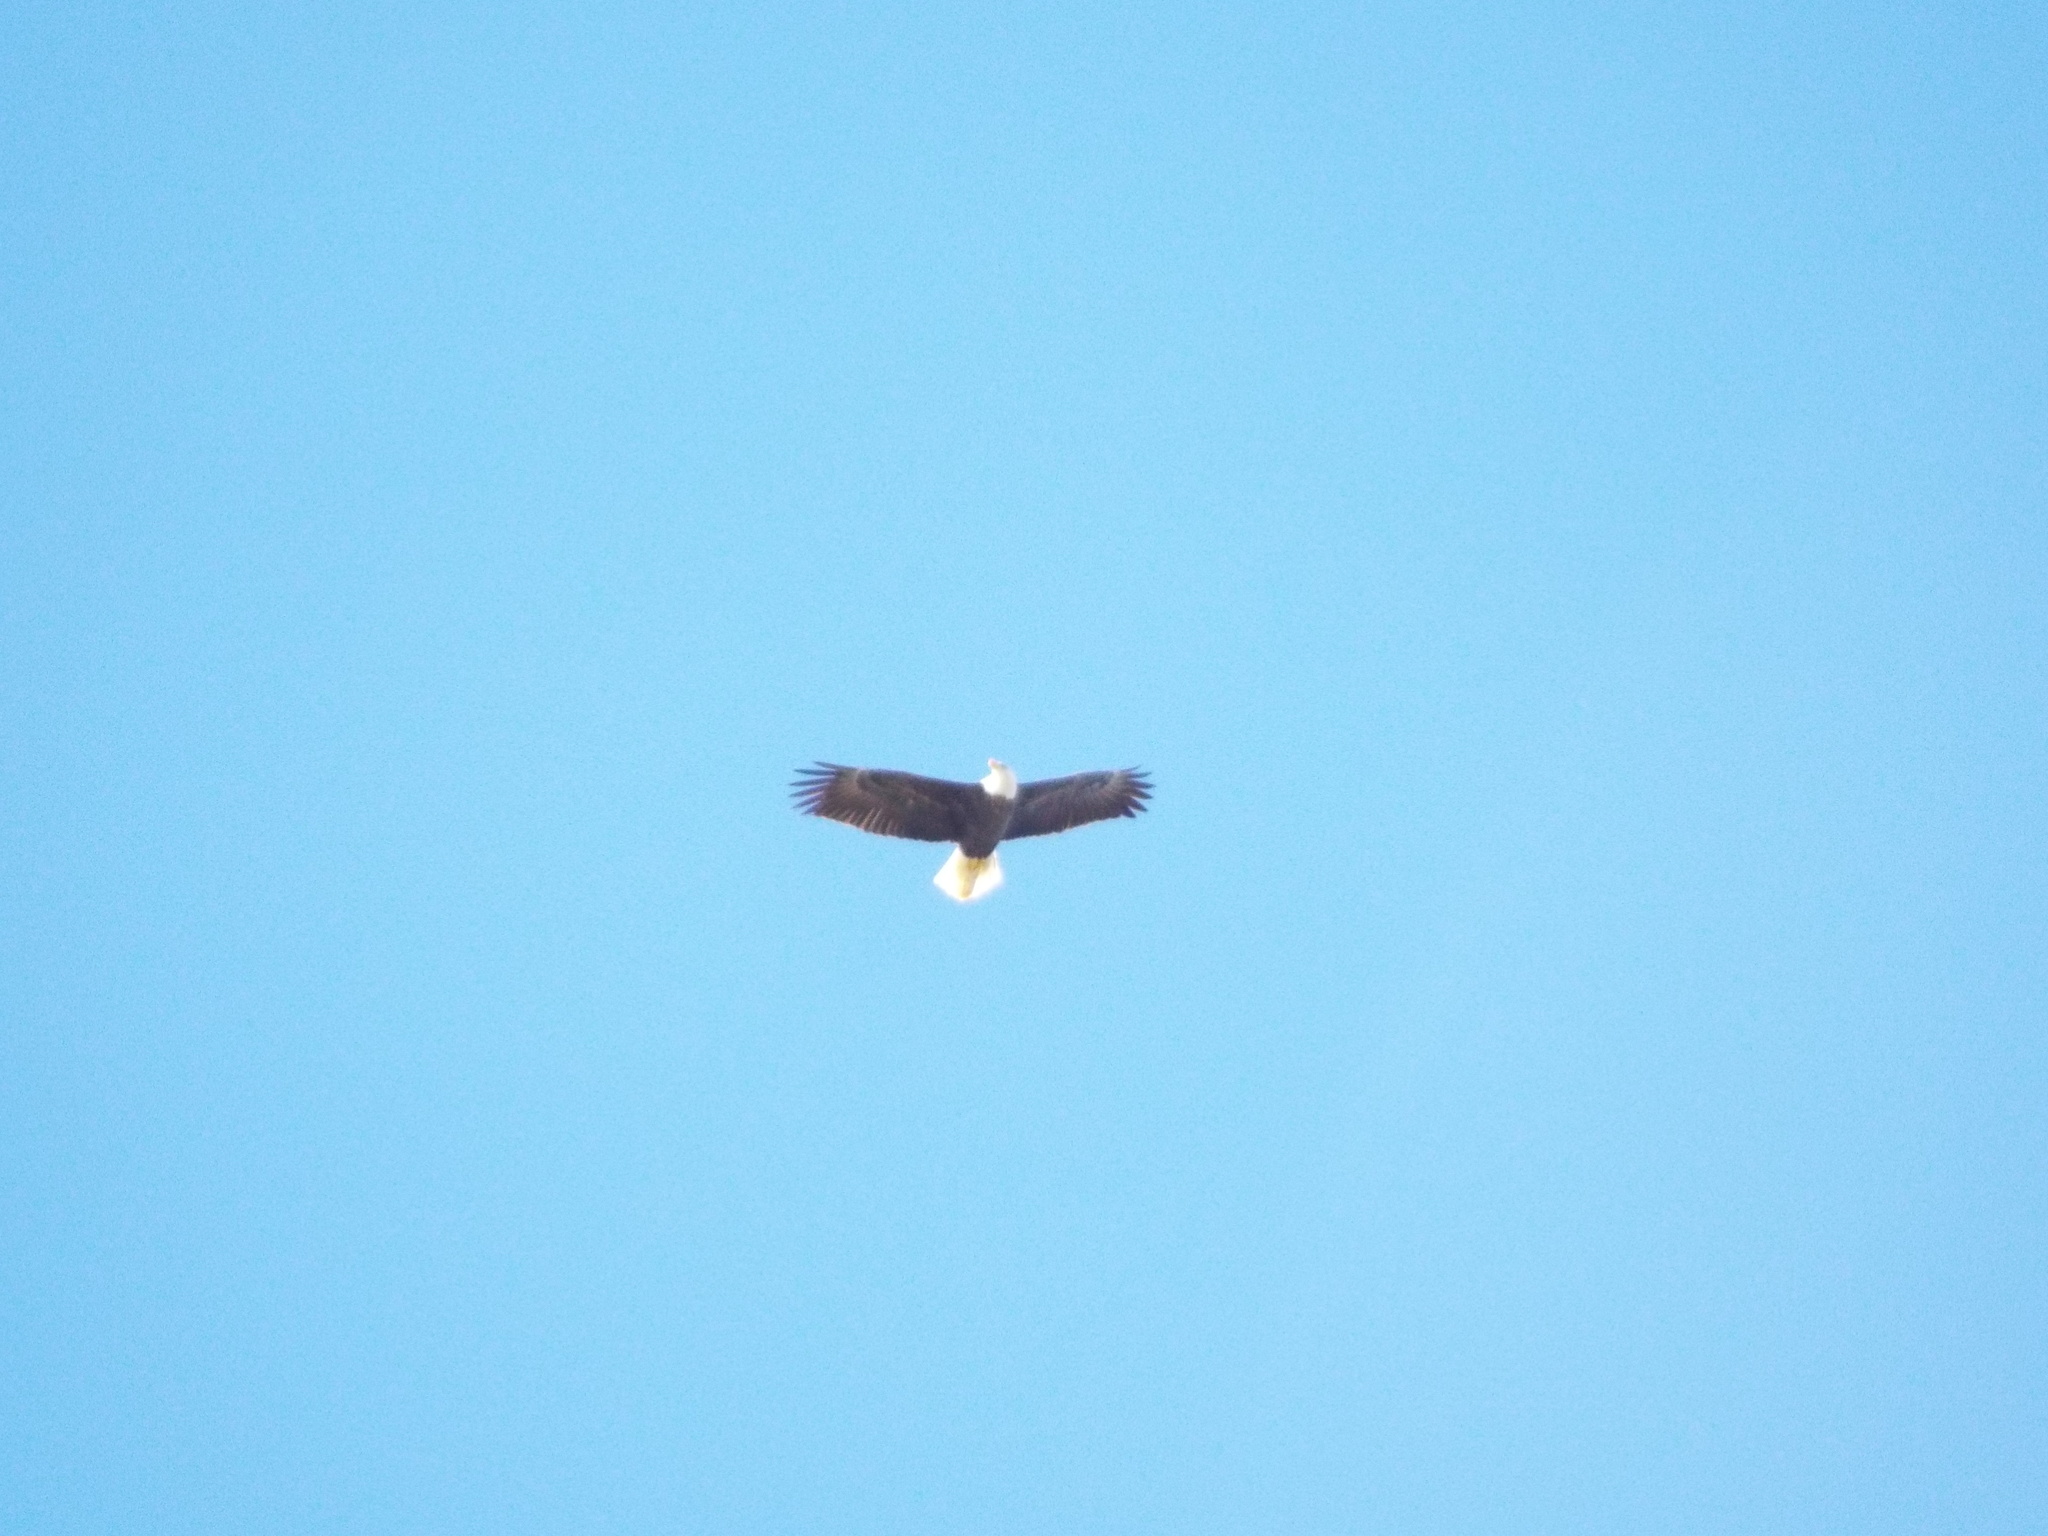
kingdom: Animalia
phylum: Chordata
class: Aves
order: Accipitriformes
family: Accipitridae
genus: Haliaeetus
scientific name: Haliaeetus leucocephalus
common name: Bald eagle
